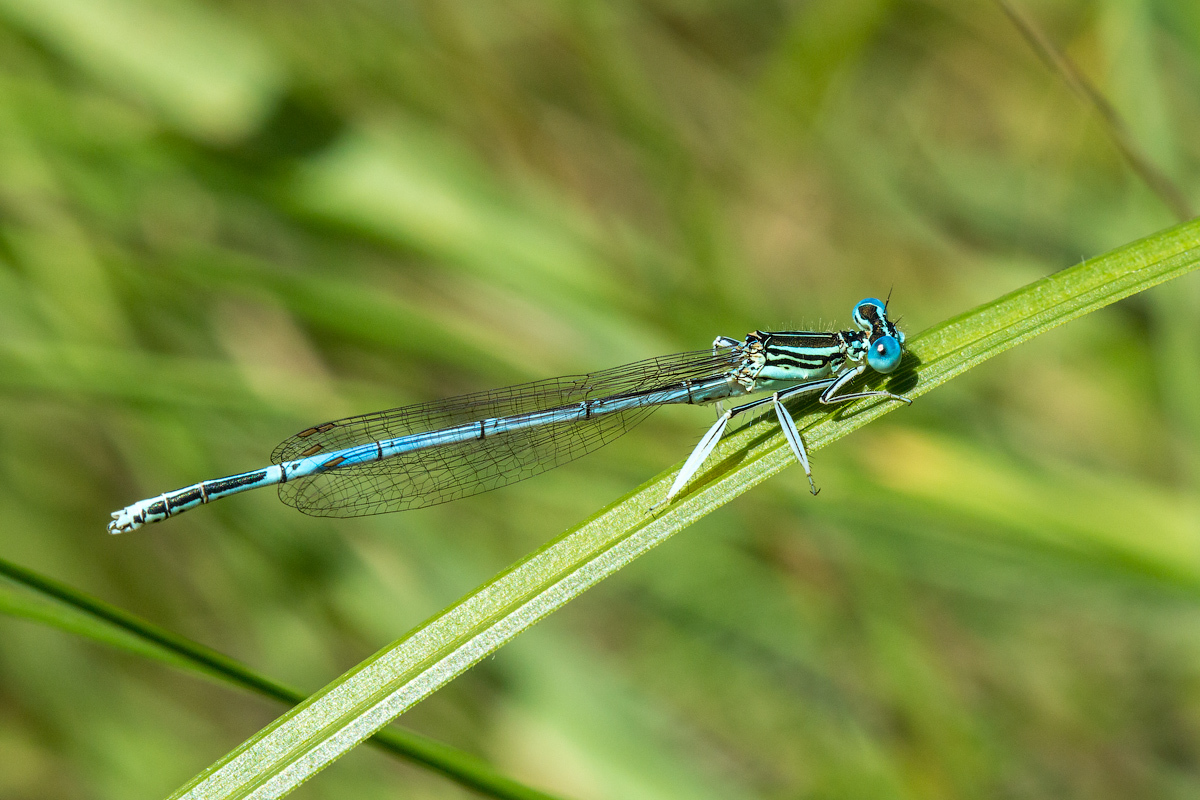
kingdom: Animalia
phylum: Arthropoda
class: Insecta
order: Odonata
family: Platycnemididae
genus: Platycnemis
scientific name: Platycnemis pennipes
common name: White-legged damselfly
